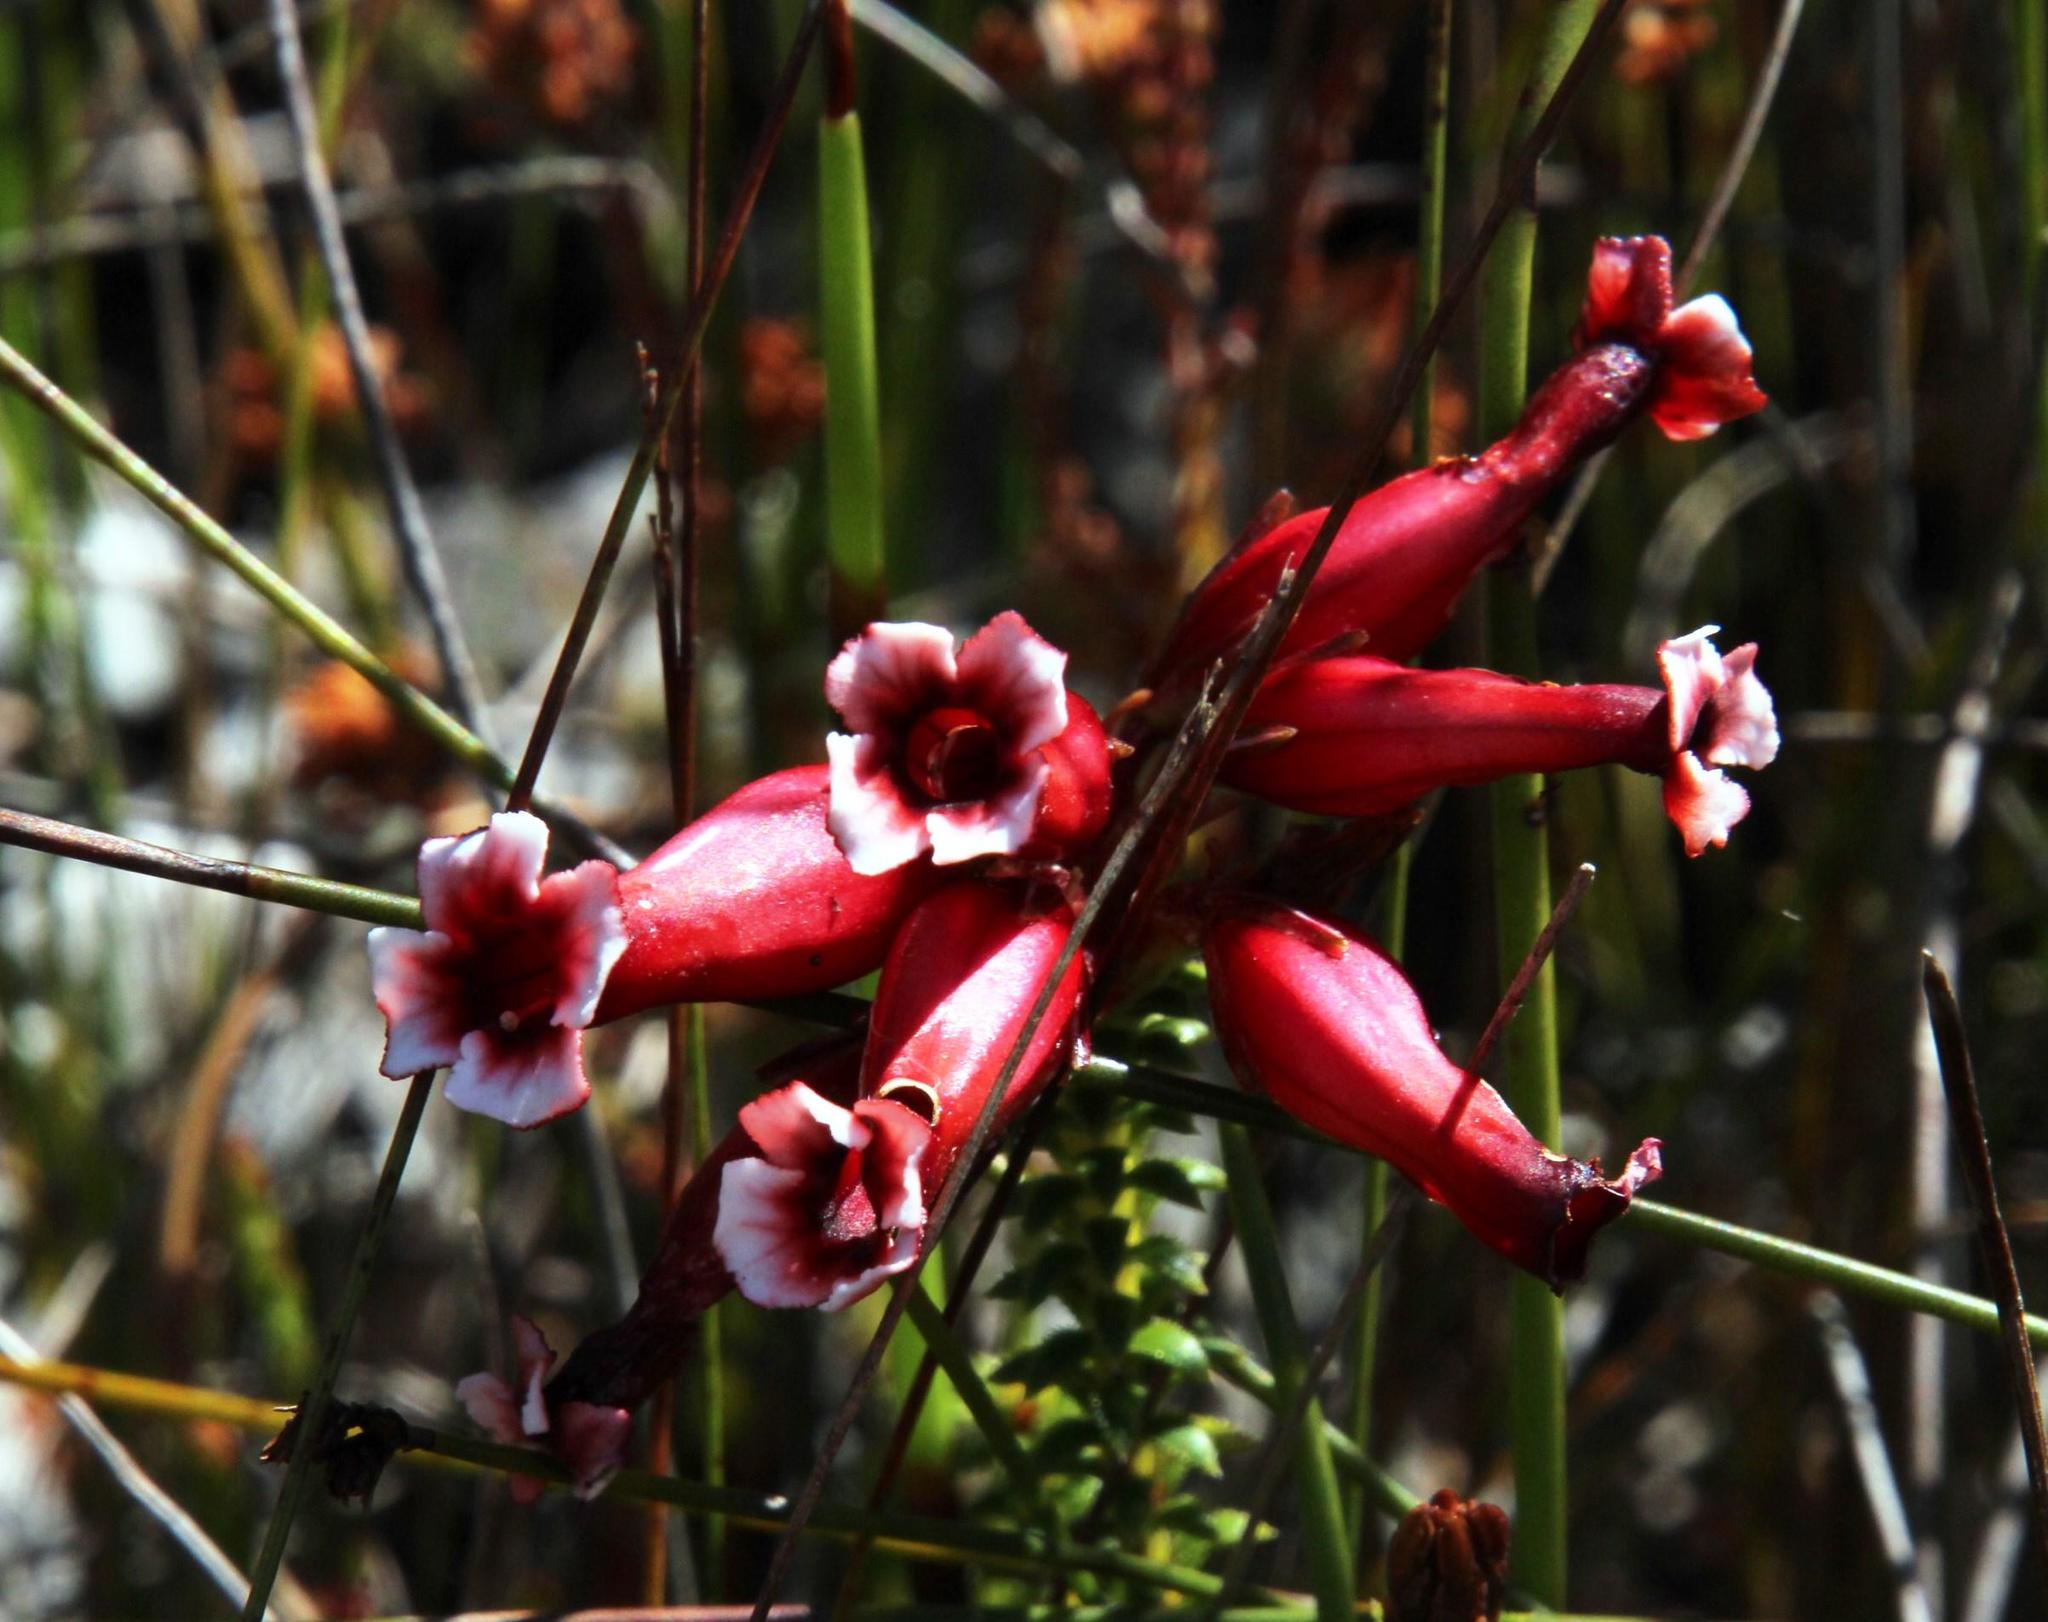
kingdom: Plantae
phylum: Tracheophyta
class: Magnoliopsida
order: Ericales
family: Ericaceae
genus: Erica
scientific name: Erica aristata
